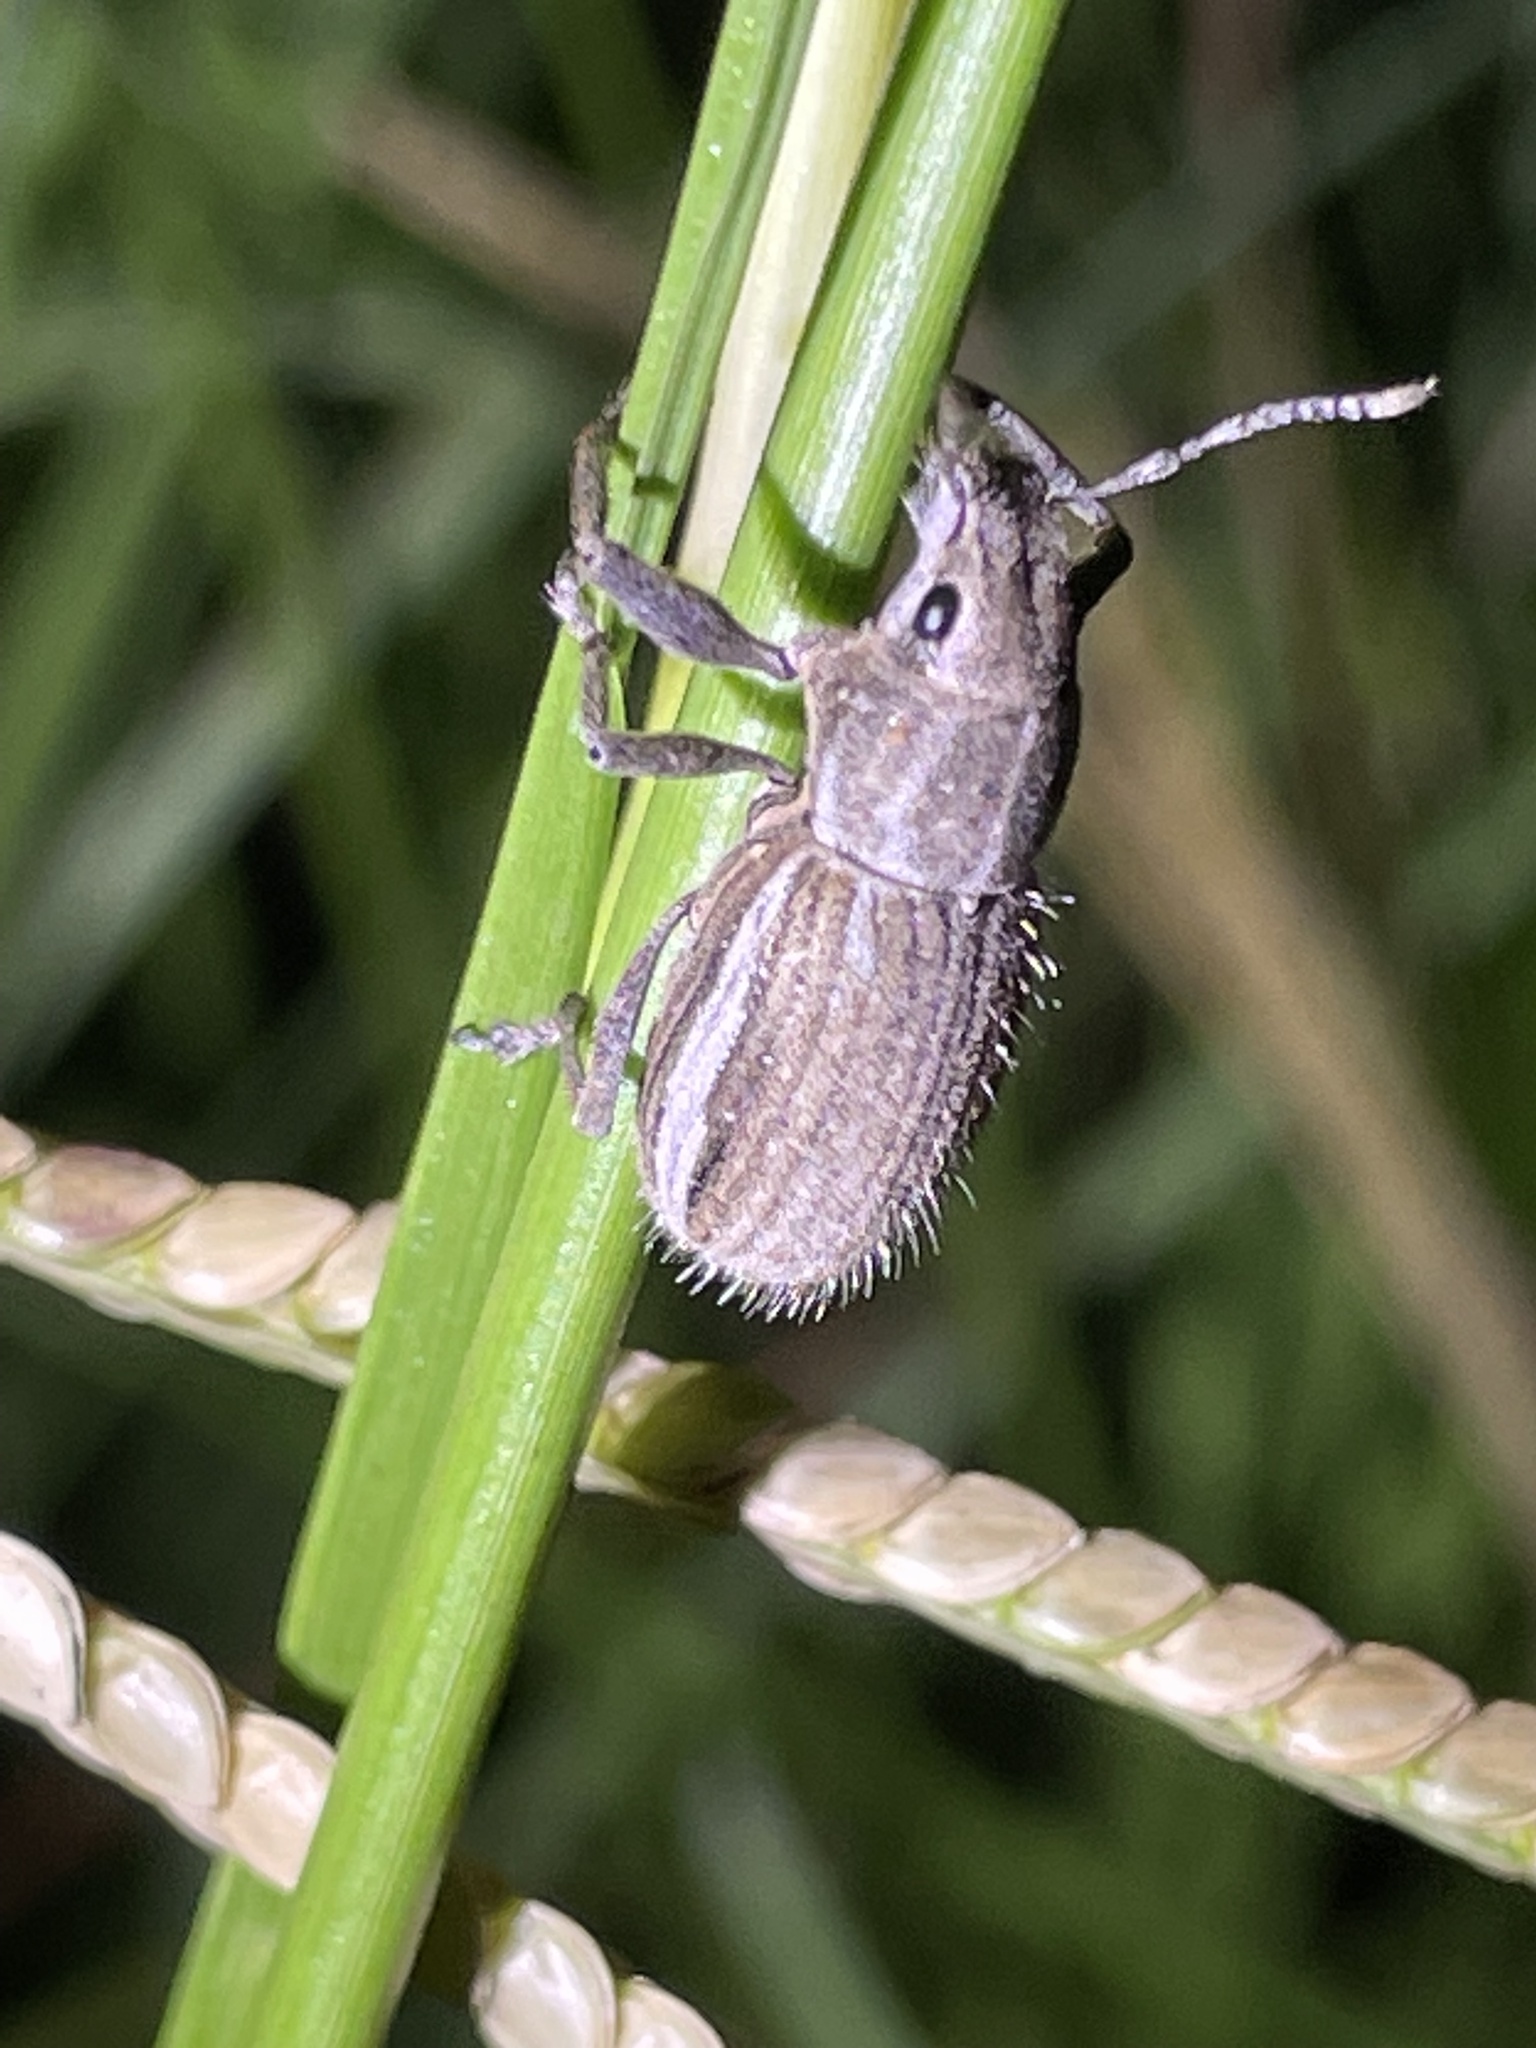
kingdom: Animalia
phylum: Arthropoda
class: Insecta
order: Coleoptera
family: Curculionidae
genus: Naupactus
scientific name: Naupactus leucoloma
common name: Whitefringed beetle
